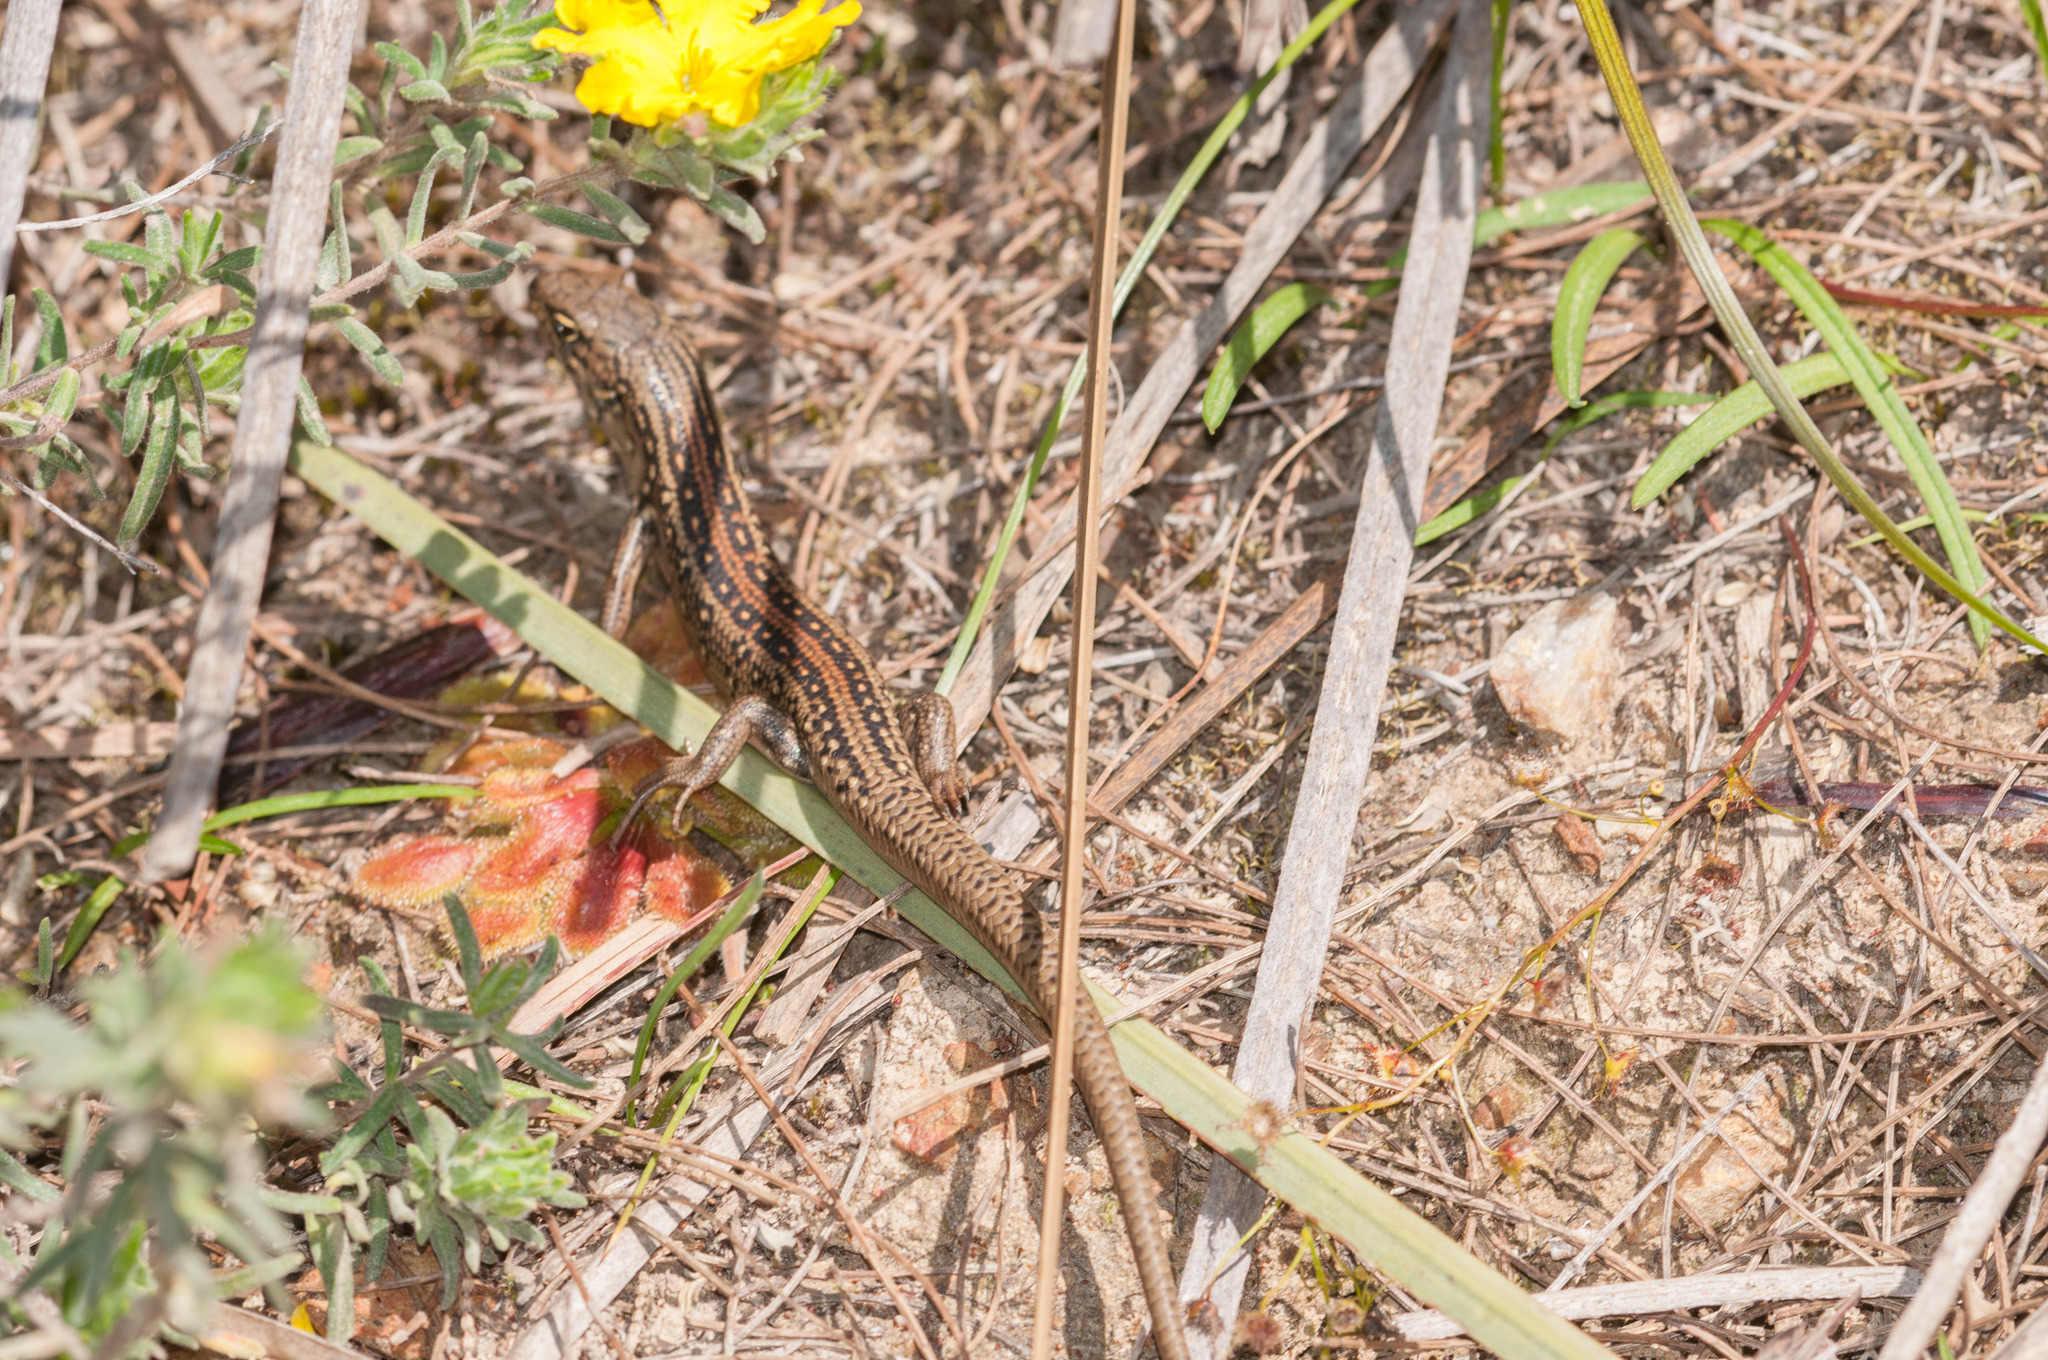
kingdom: Animalia
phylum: Chordata
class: Squamata
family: Scincidae
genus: Liopholis
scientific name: Liopholis whitii
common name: White's rock-skink
